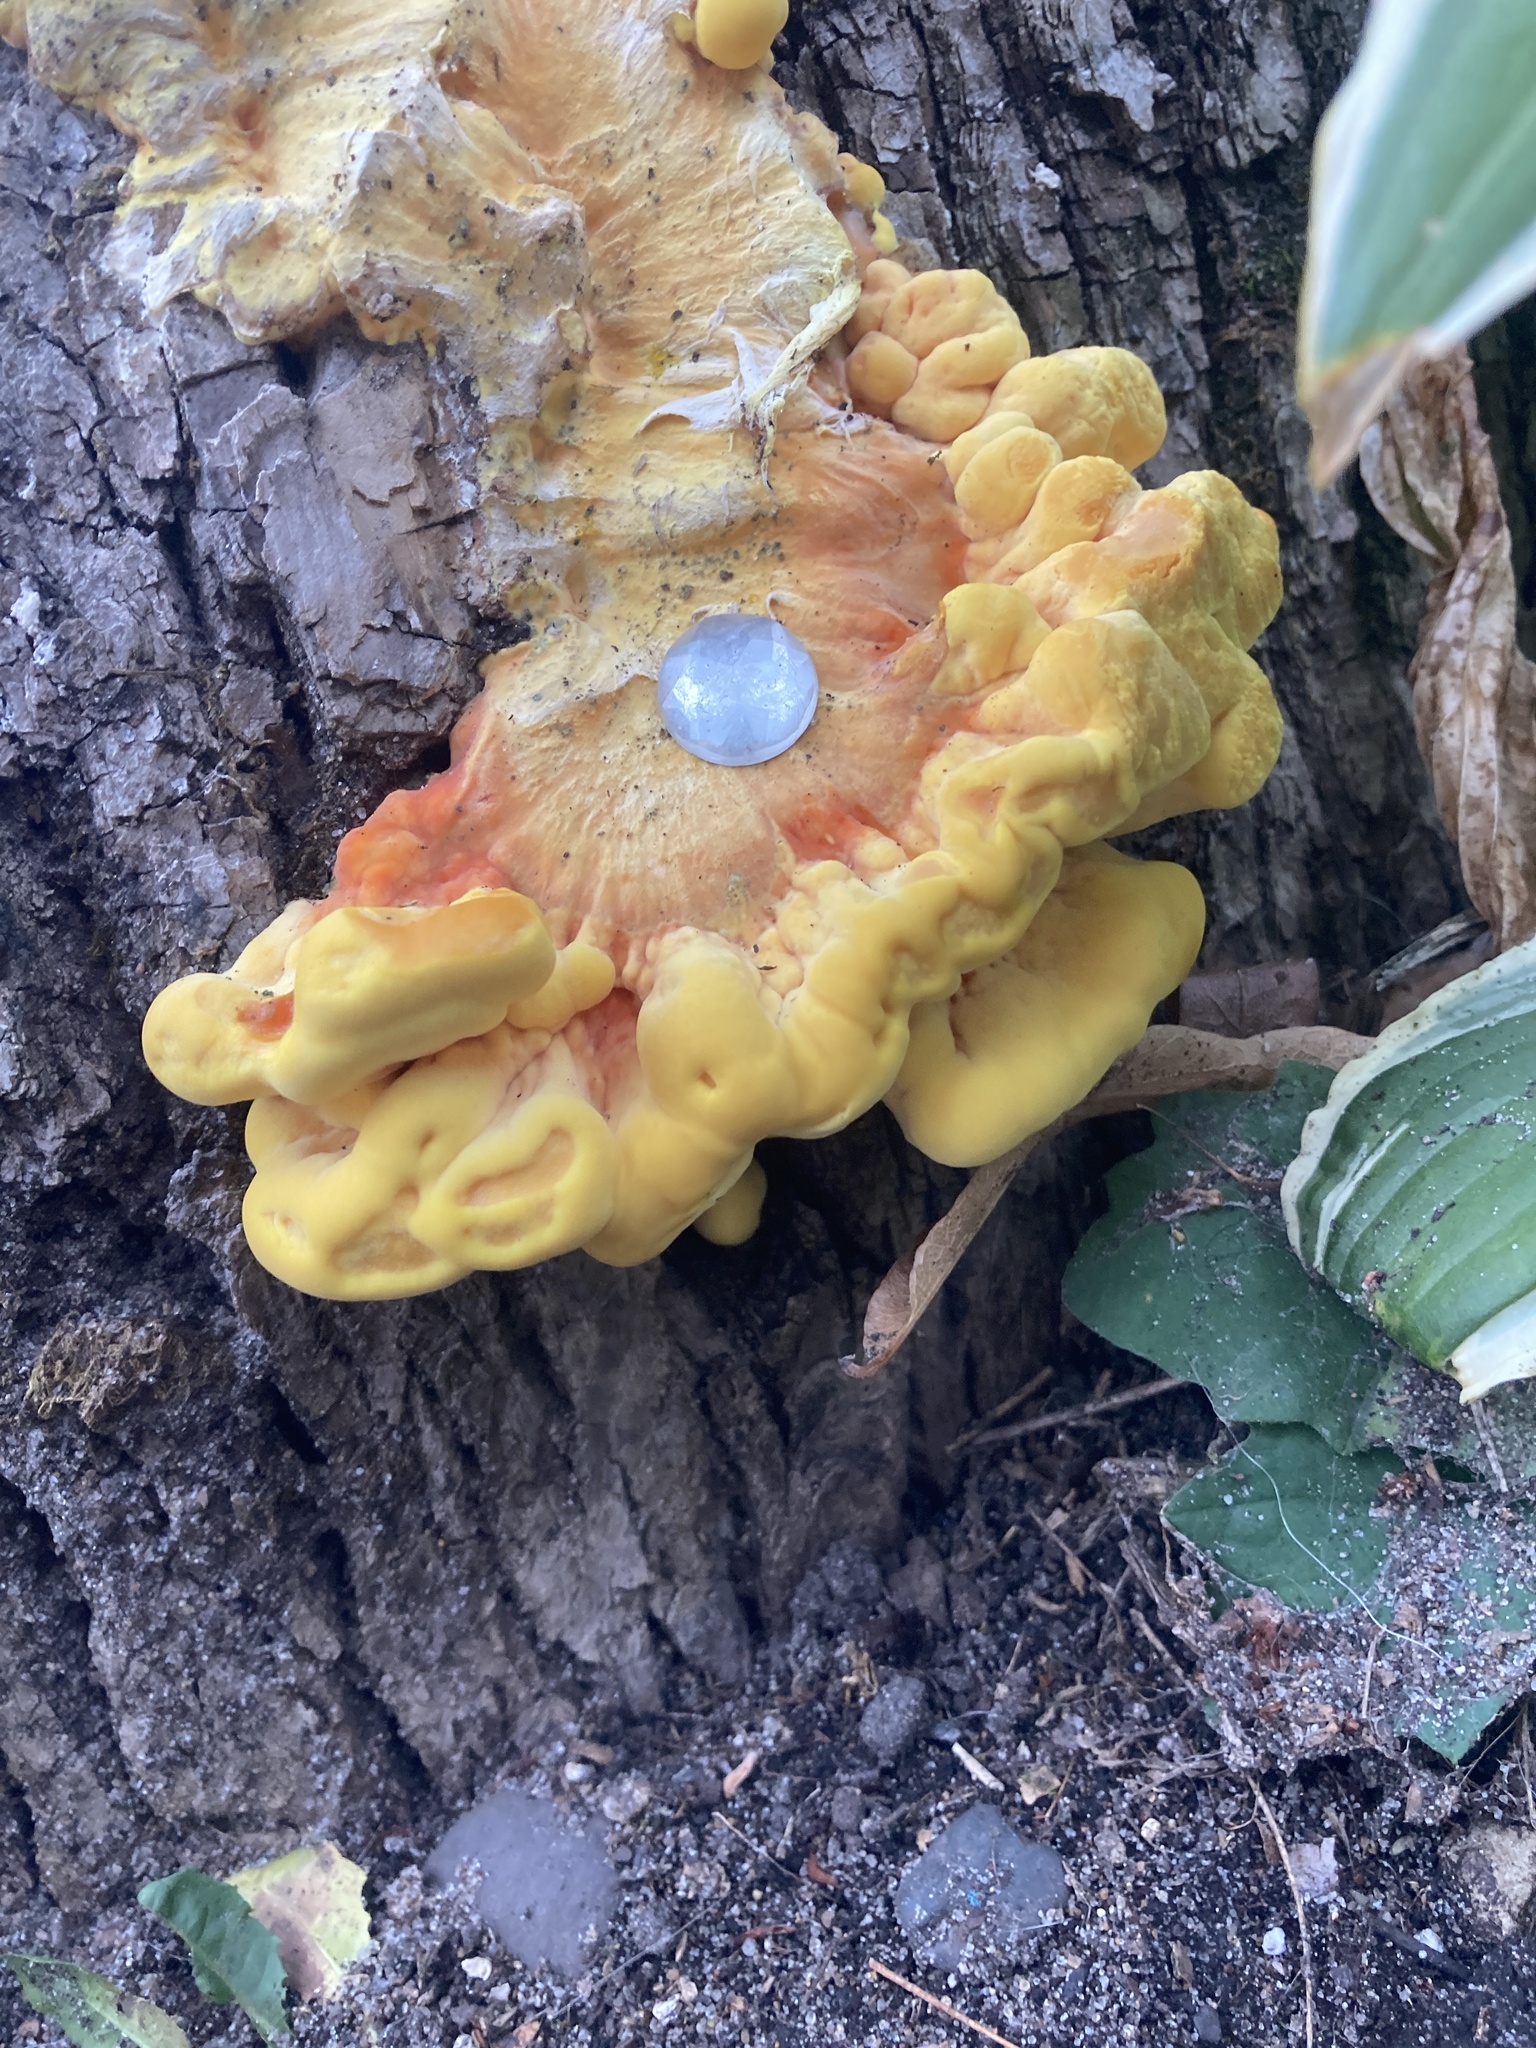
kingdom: Fungi
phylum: Basidiomycota
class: Agaricomycetes
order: Polyporales
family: Laetiporaceae
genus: Laetiporus
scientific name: Laetiporus sulphureus
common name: Chicken of the woods
